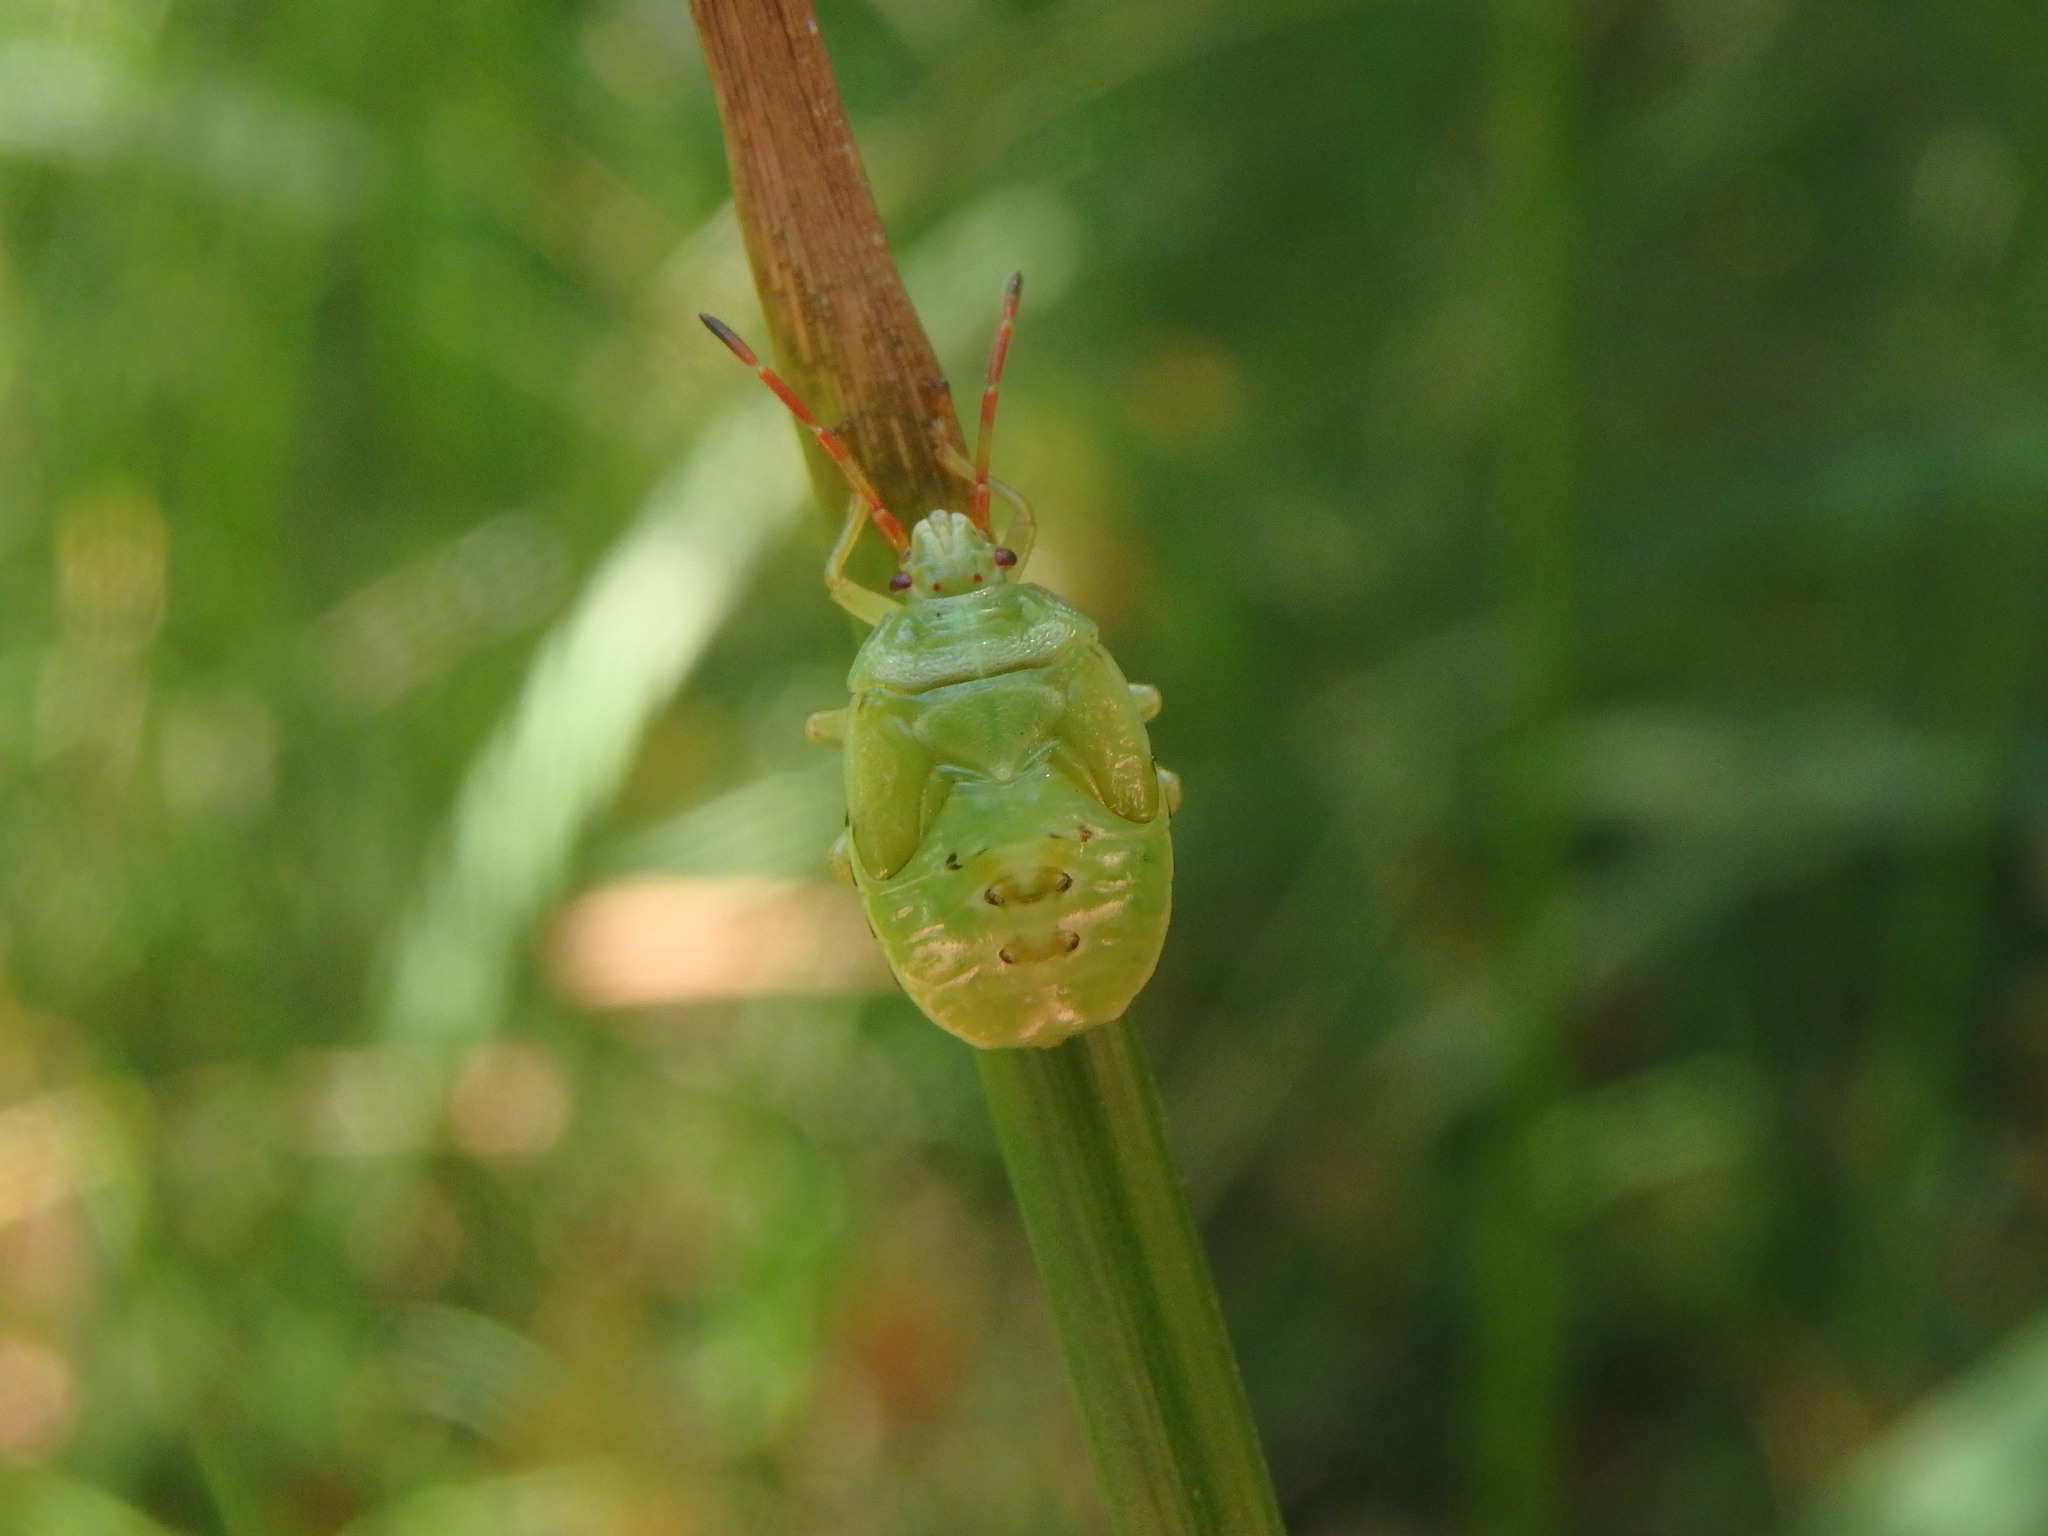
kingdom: Animalia
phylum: Arthropoda
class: Insecta
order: Hemiptera
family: Acanthosomatidae
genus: Elasmostethus
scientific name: Elasmostethus interstinctus
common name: Birch shieldbug
